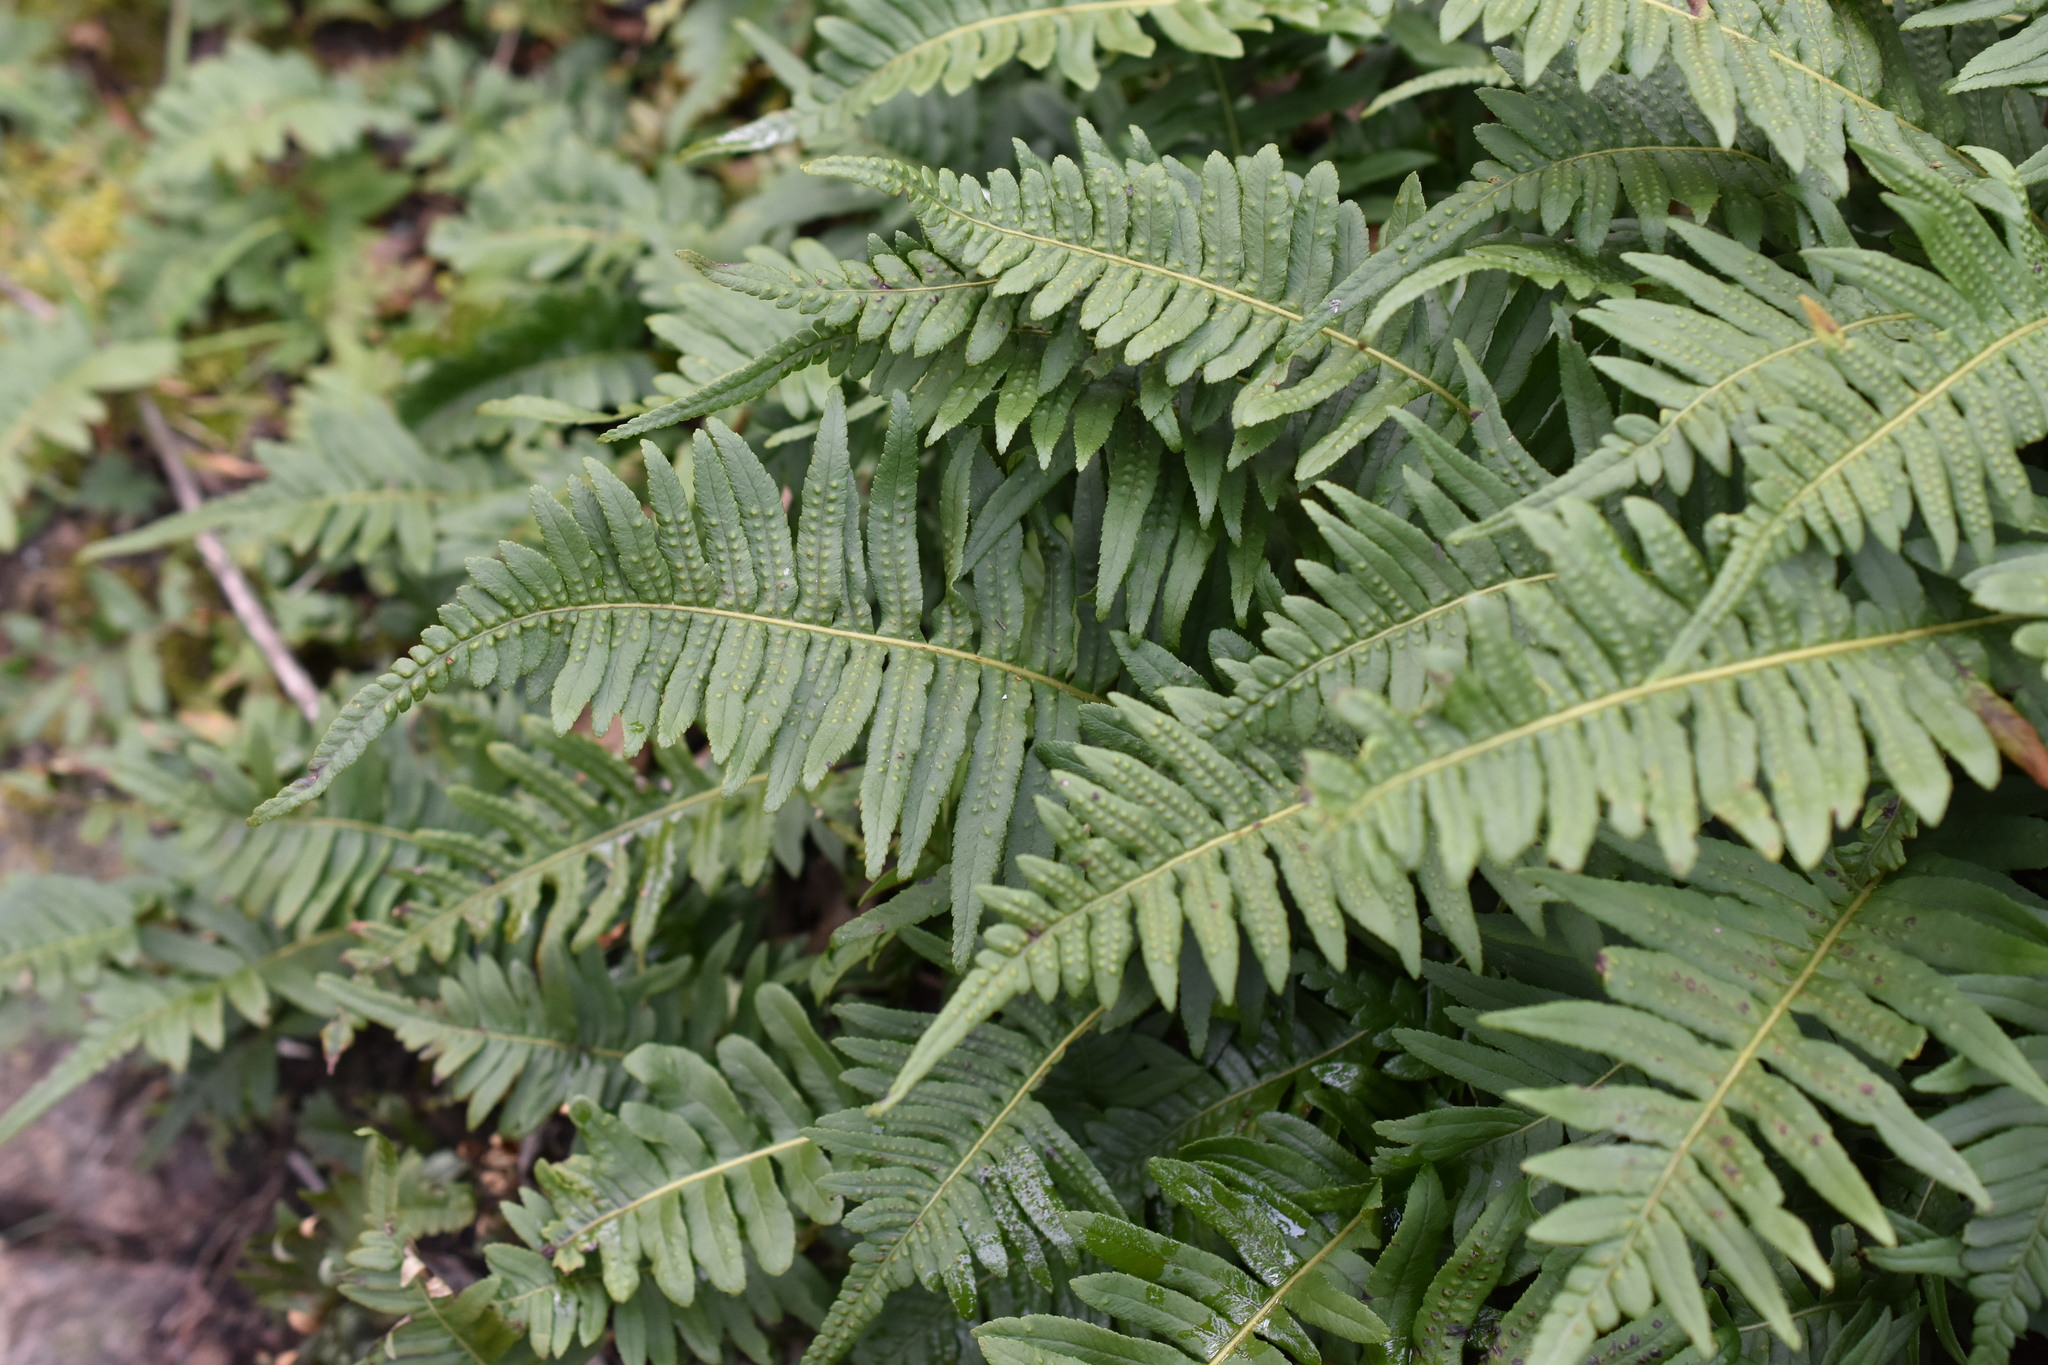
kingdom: Plantae
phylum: Tracheophyta
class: Polypodiopsida
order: Polypodiales
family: Polypodiaceae
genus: Polypodium
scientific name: Polypodium glycyrrhiza
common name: Licorice fern
